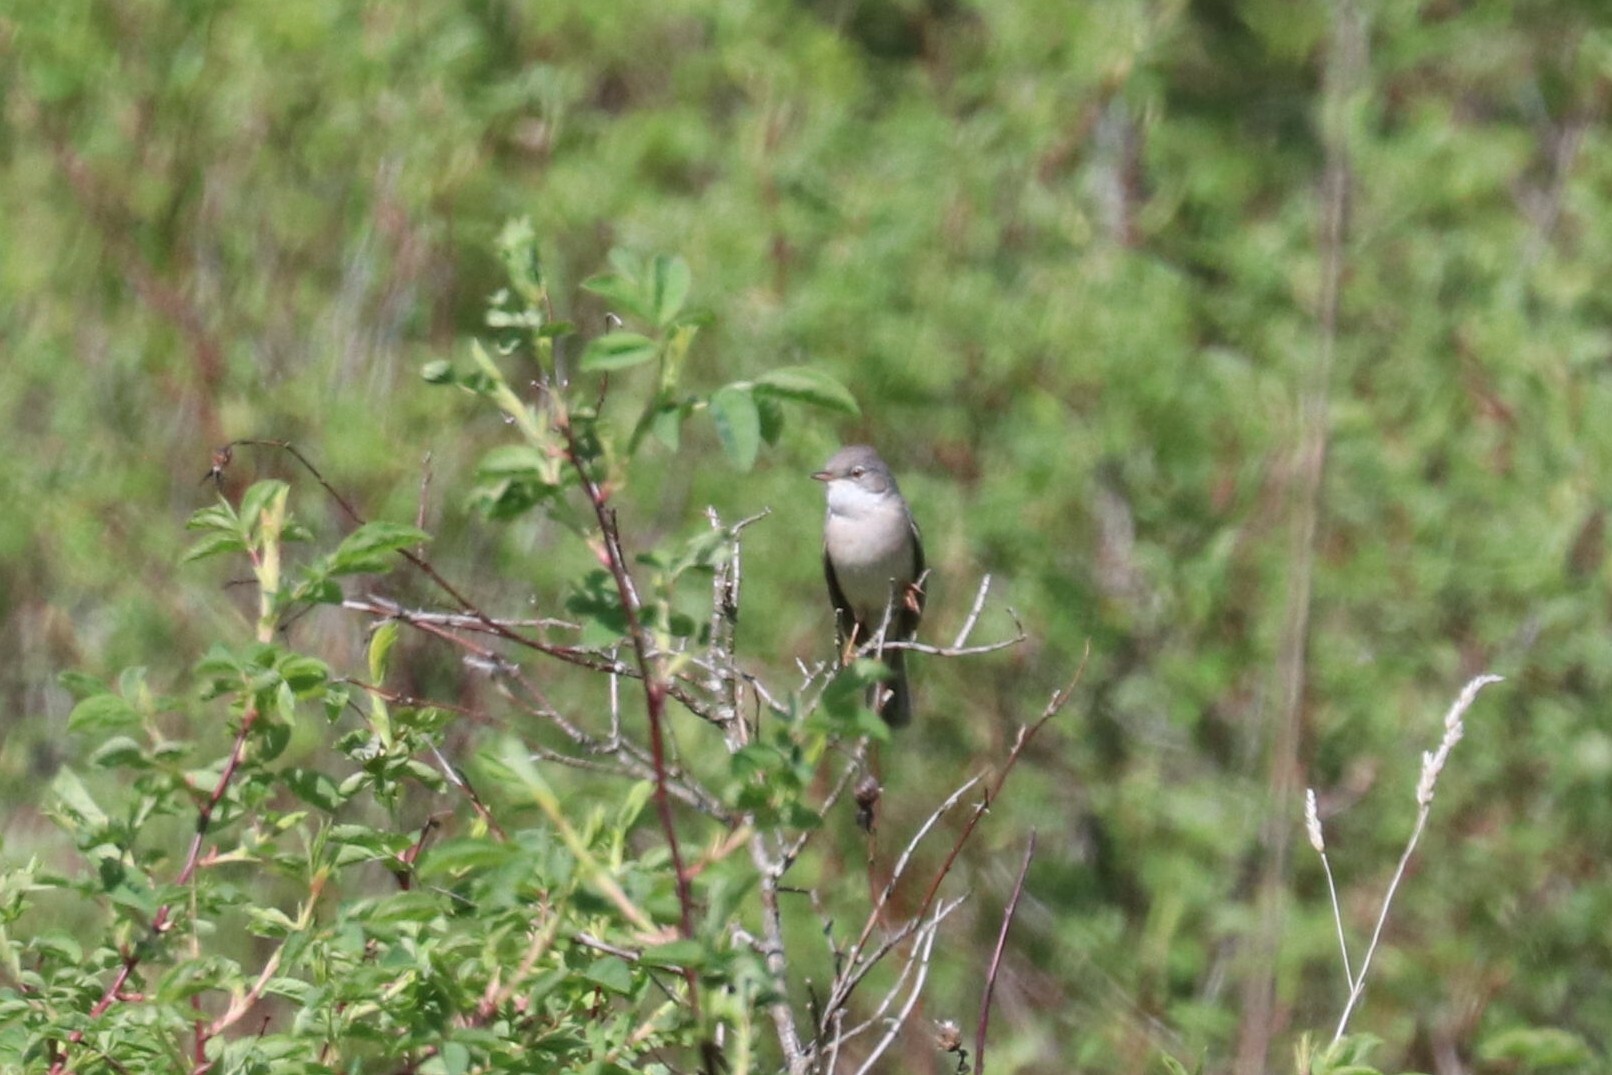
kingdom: Animalia
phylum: Chordata
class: Aves
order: Passeriformes
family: Sylviidae
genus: Sylvia
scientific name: Sylvia communis
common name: Common whitethroat
